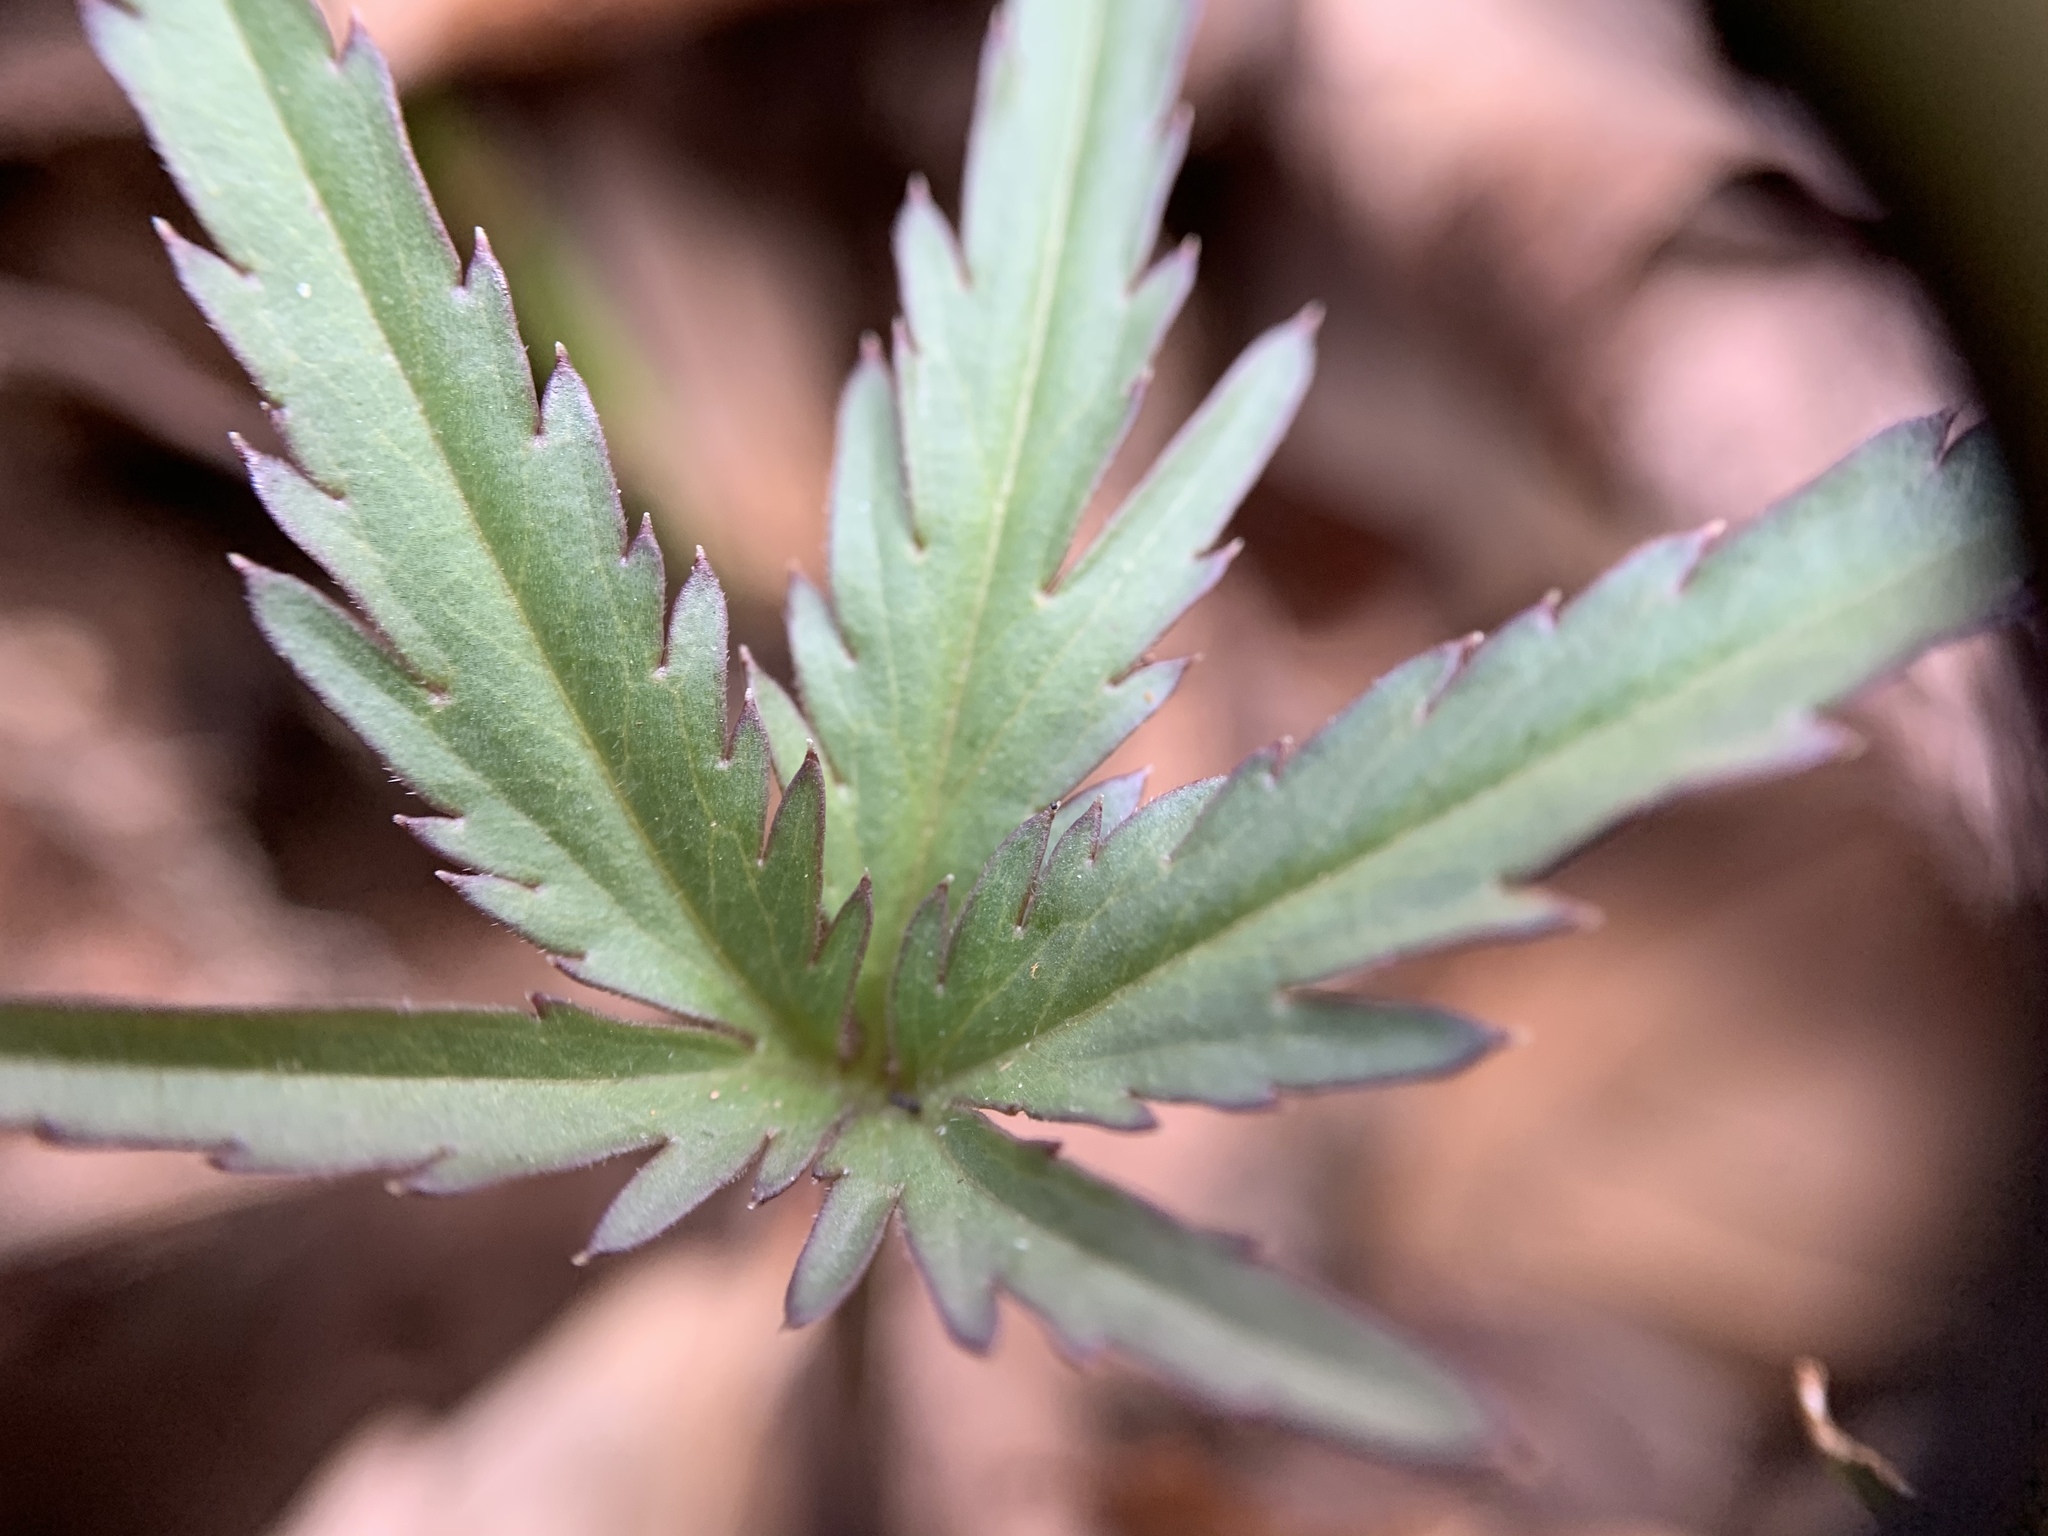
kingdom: Plantae
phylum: Tracheophyta
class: Magnoliopsida
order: Brassicales
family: Brassicaceae
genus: Cardamine
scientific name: Cardamine concatenata
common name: Cut-leaf toothcup
